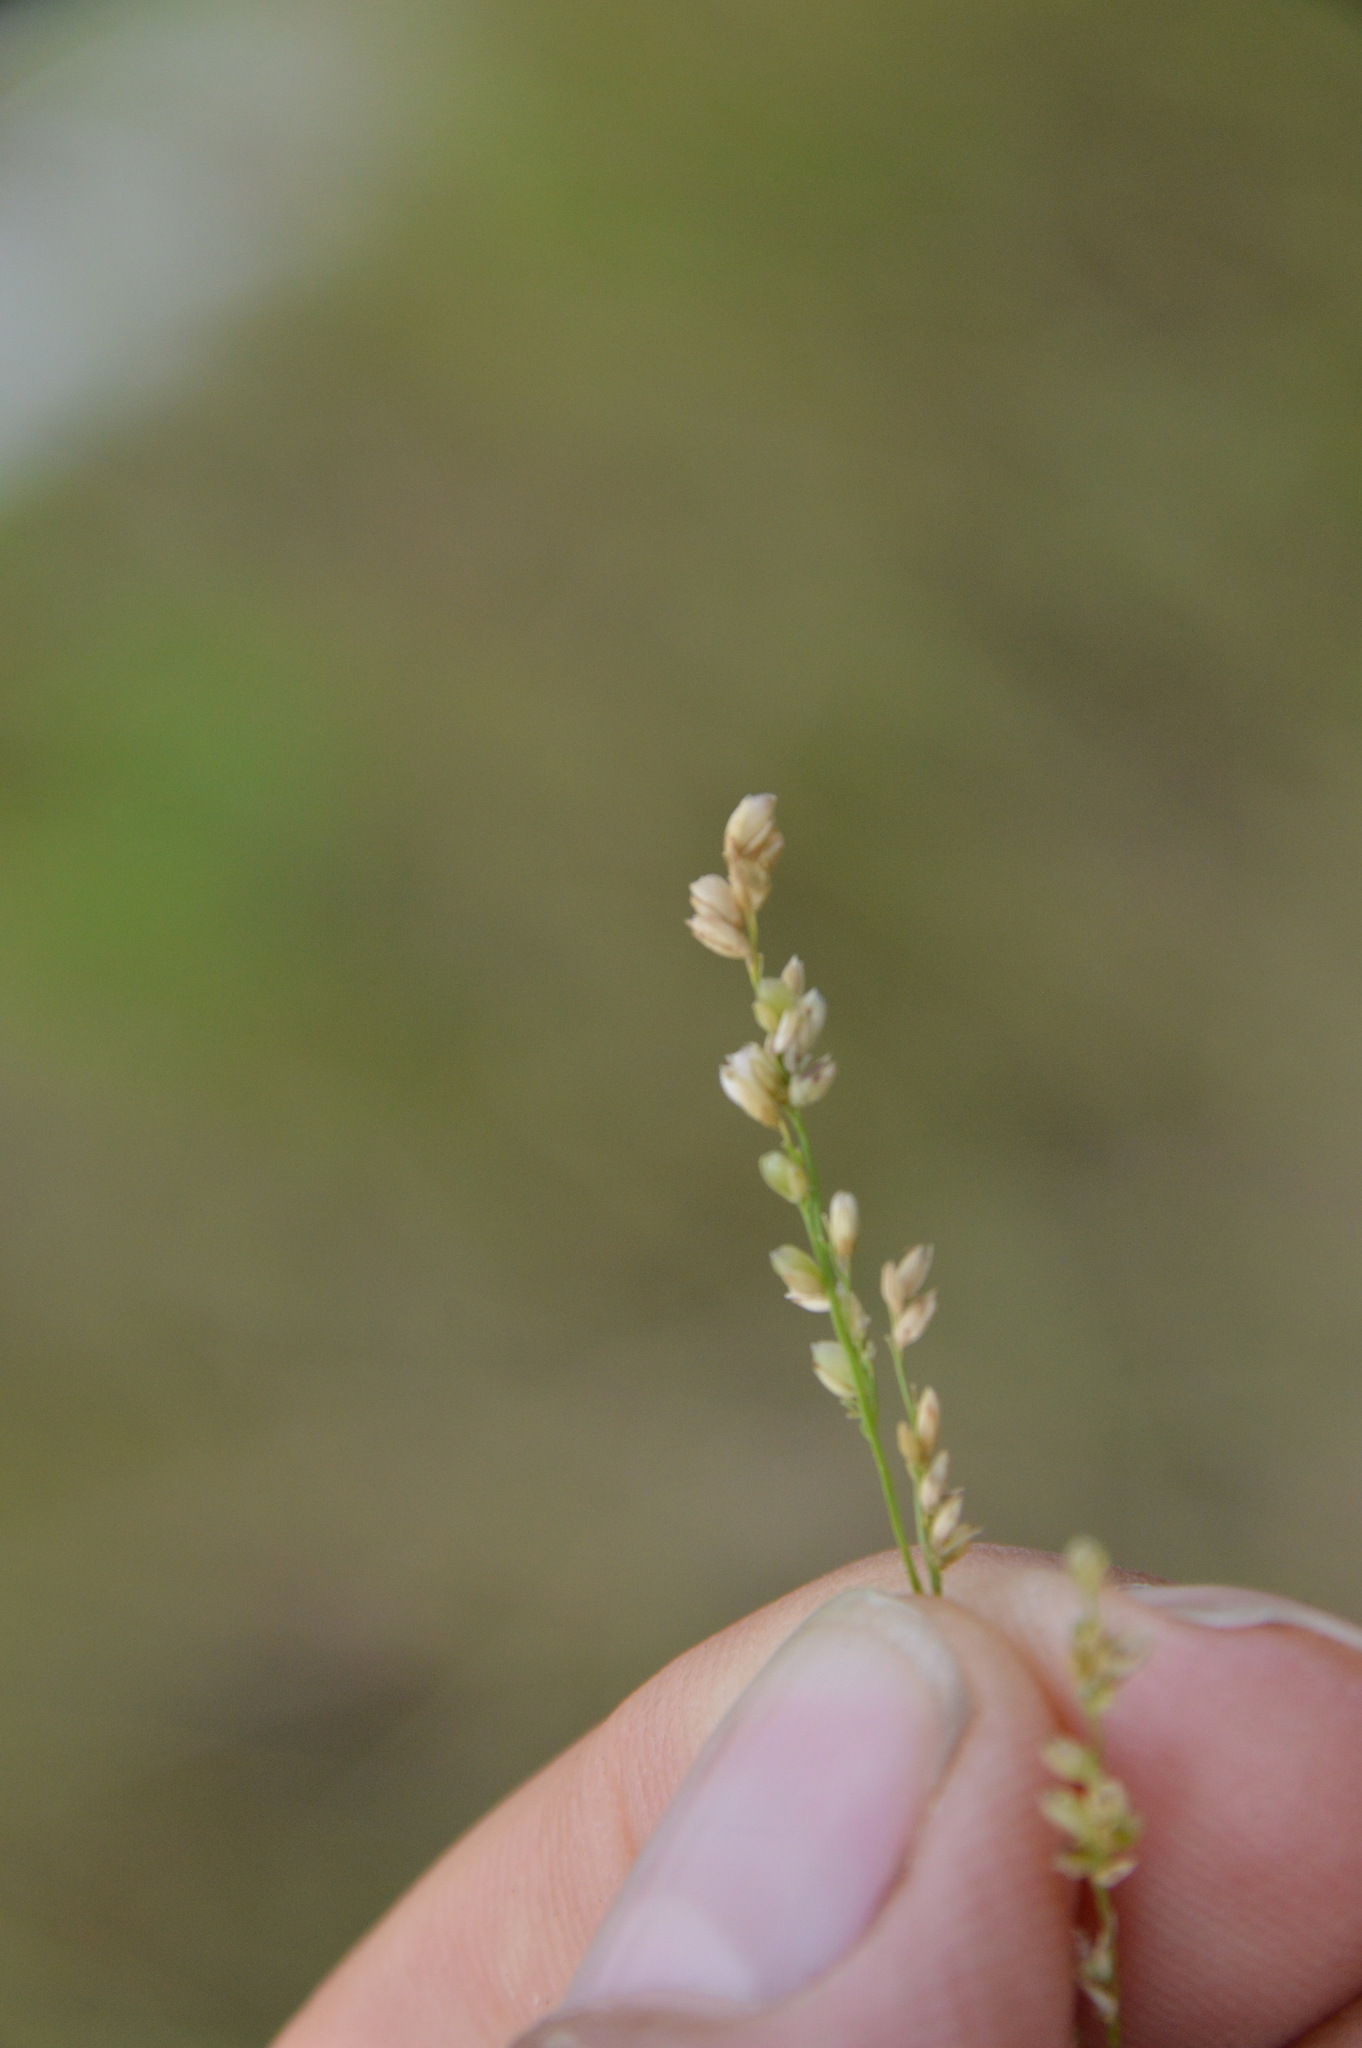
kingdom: Plantae
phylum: Tracheophyta
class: Liliopsida
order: Poales
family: Poaceae
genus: Steinchisma
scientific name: Steinchisma hians
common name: Gaping panic grass
